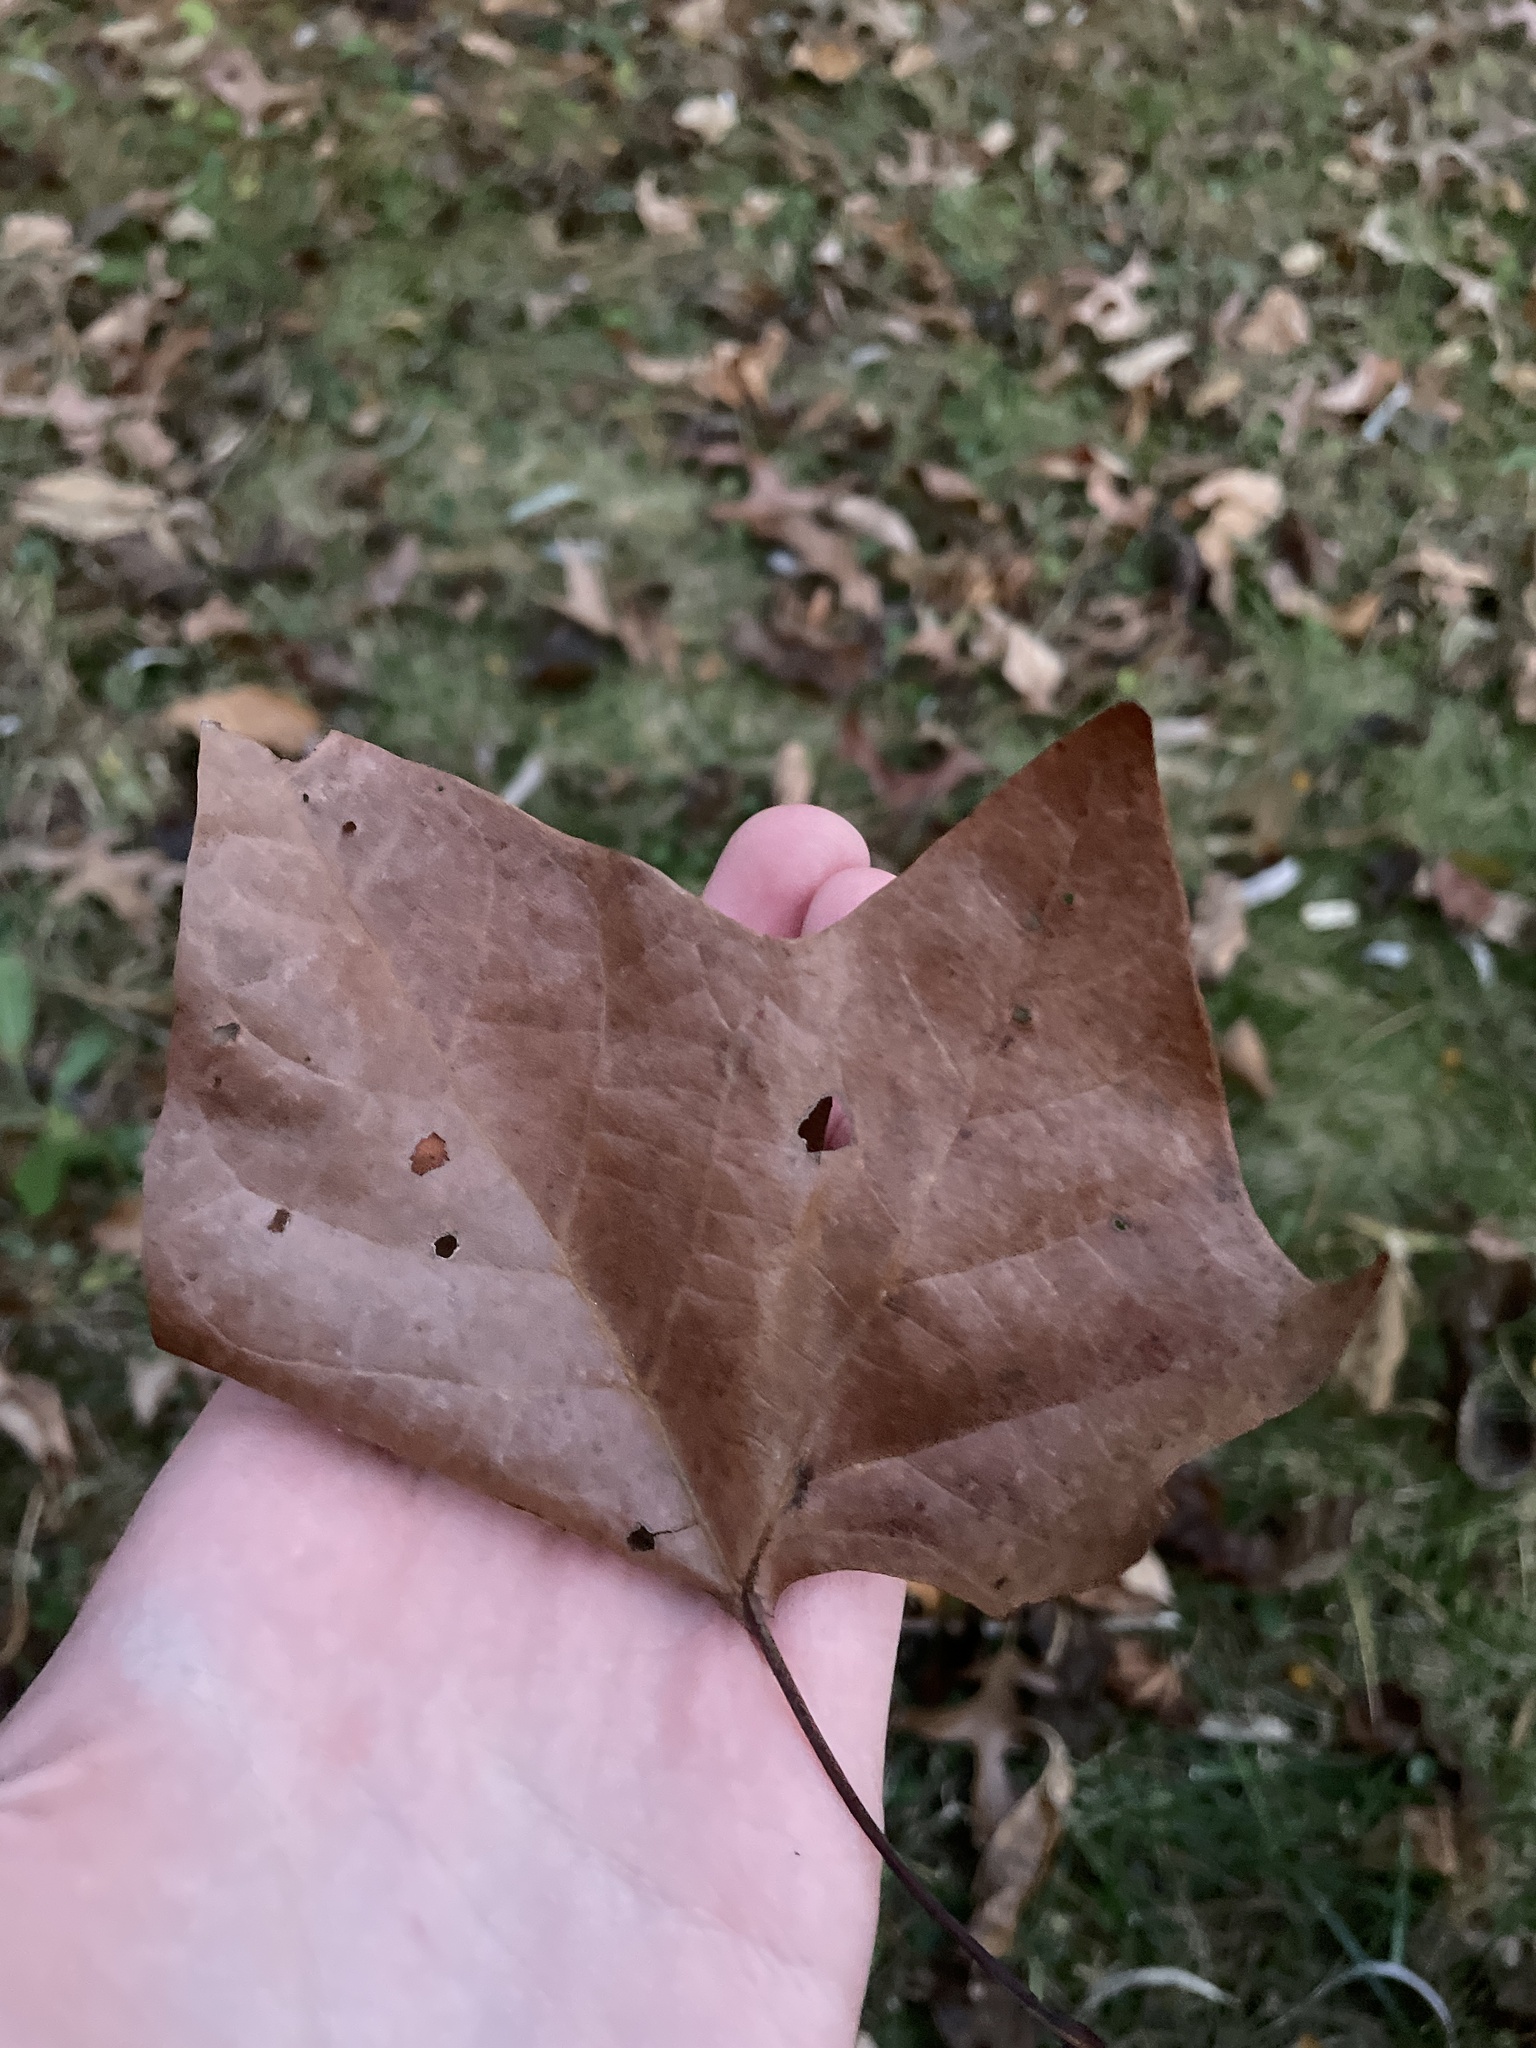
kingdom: Plantae
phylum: Tracheophyta
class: Magnoliopsida
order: Proteales
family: Platanaceae
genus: Platanus
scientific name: Platanus occidentalis
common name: American sycamore
